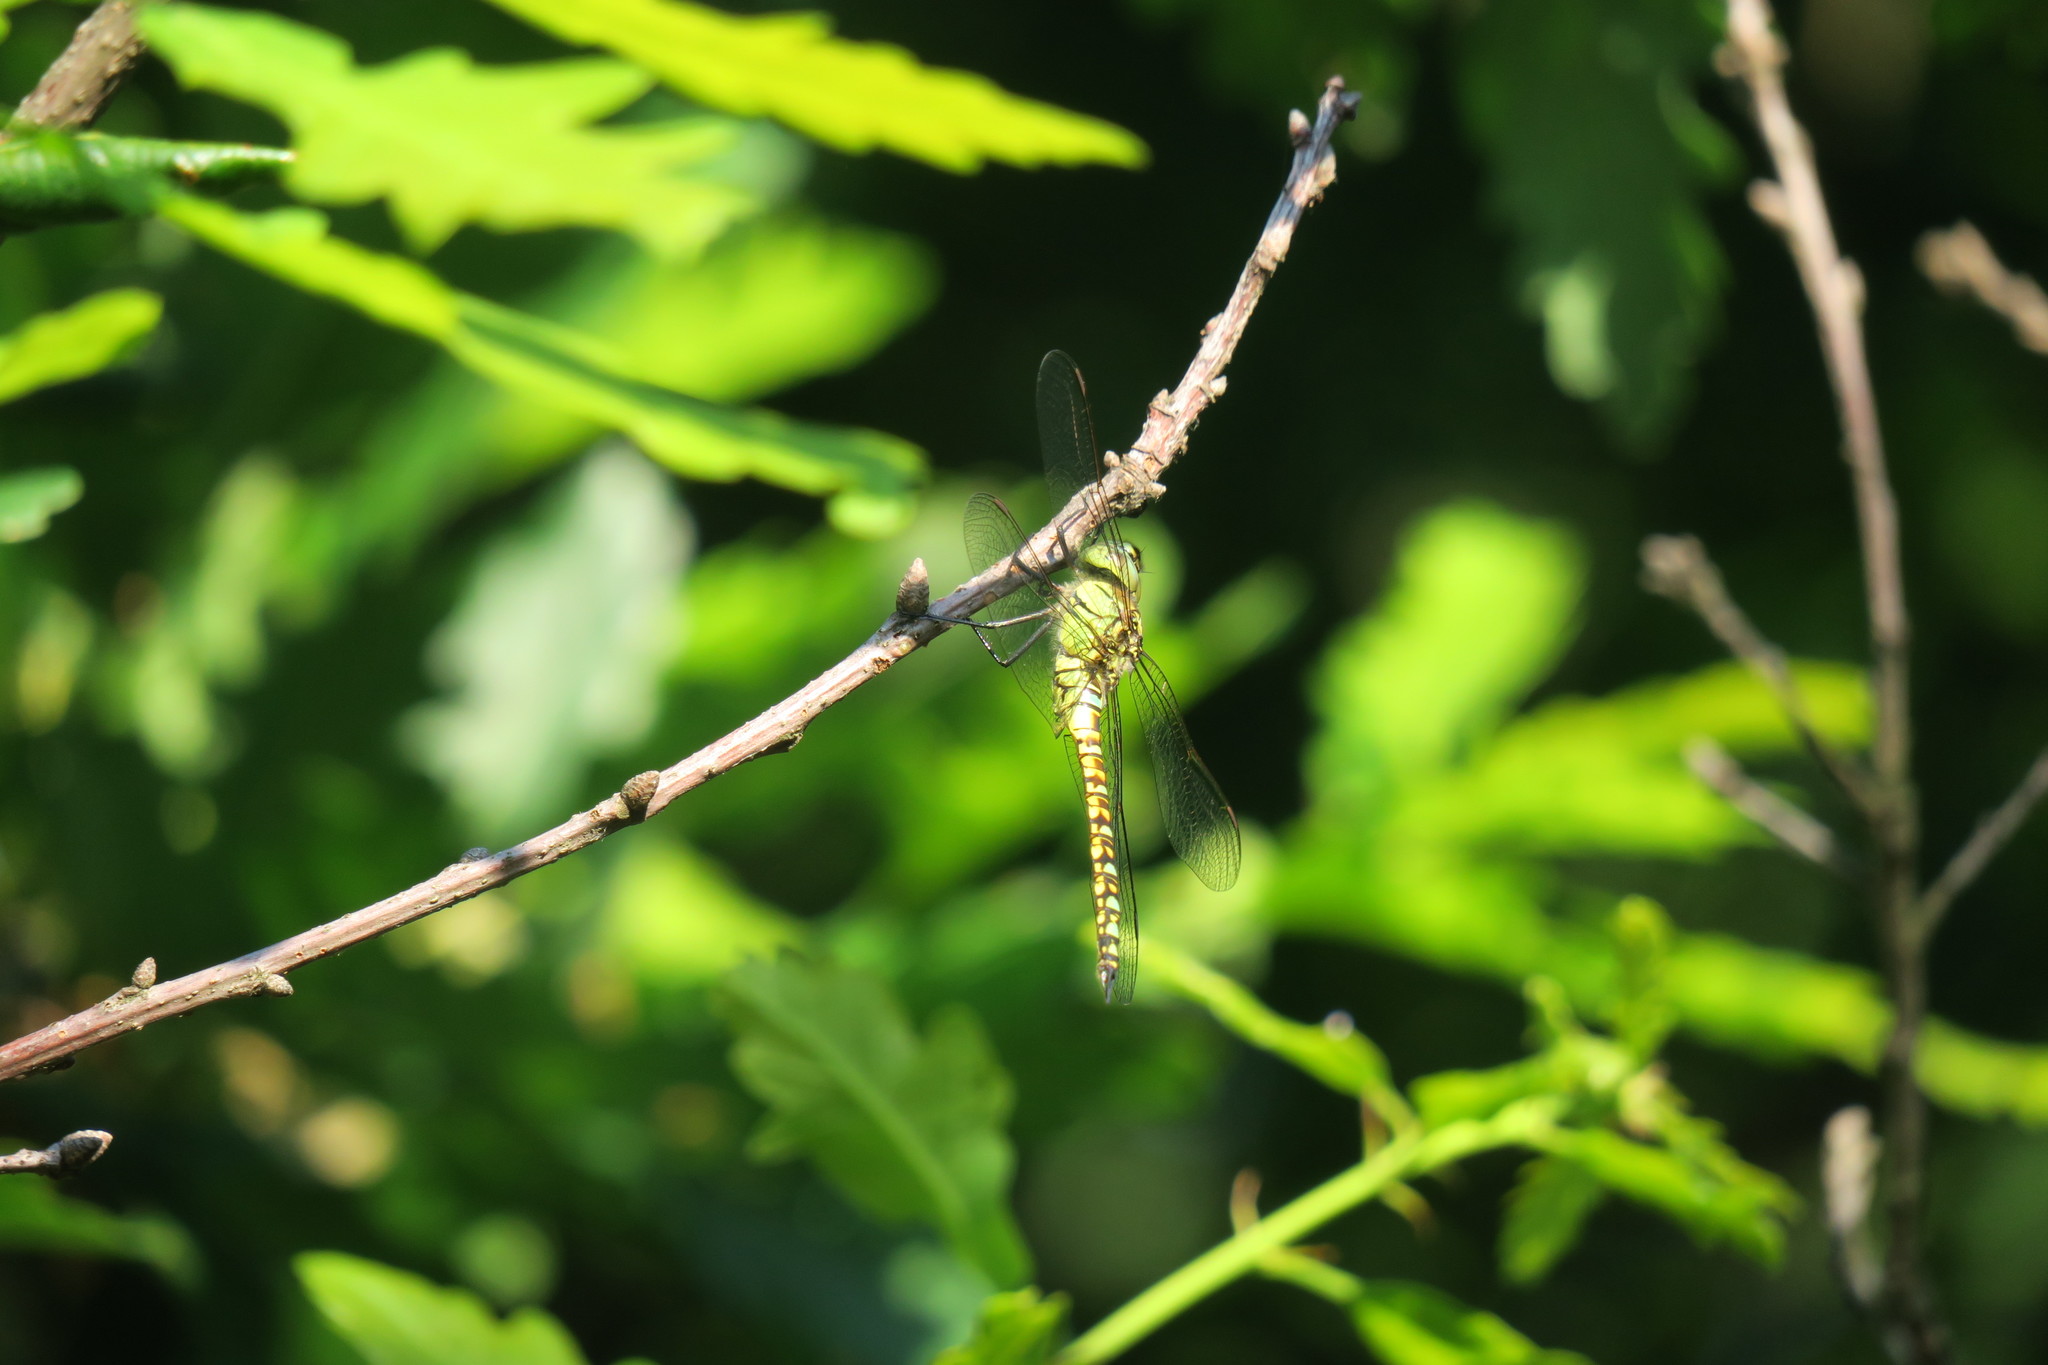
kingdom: Animalia
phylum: Arthropoda
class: Insecta
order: Odonata
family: Aeshnidae
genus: Aeshna
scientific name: Aeshna affinis
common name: Southern migrant hawker
